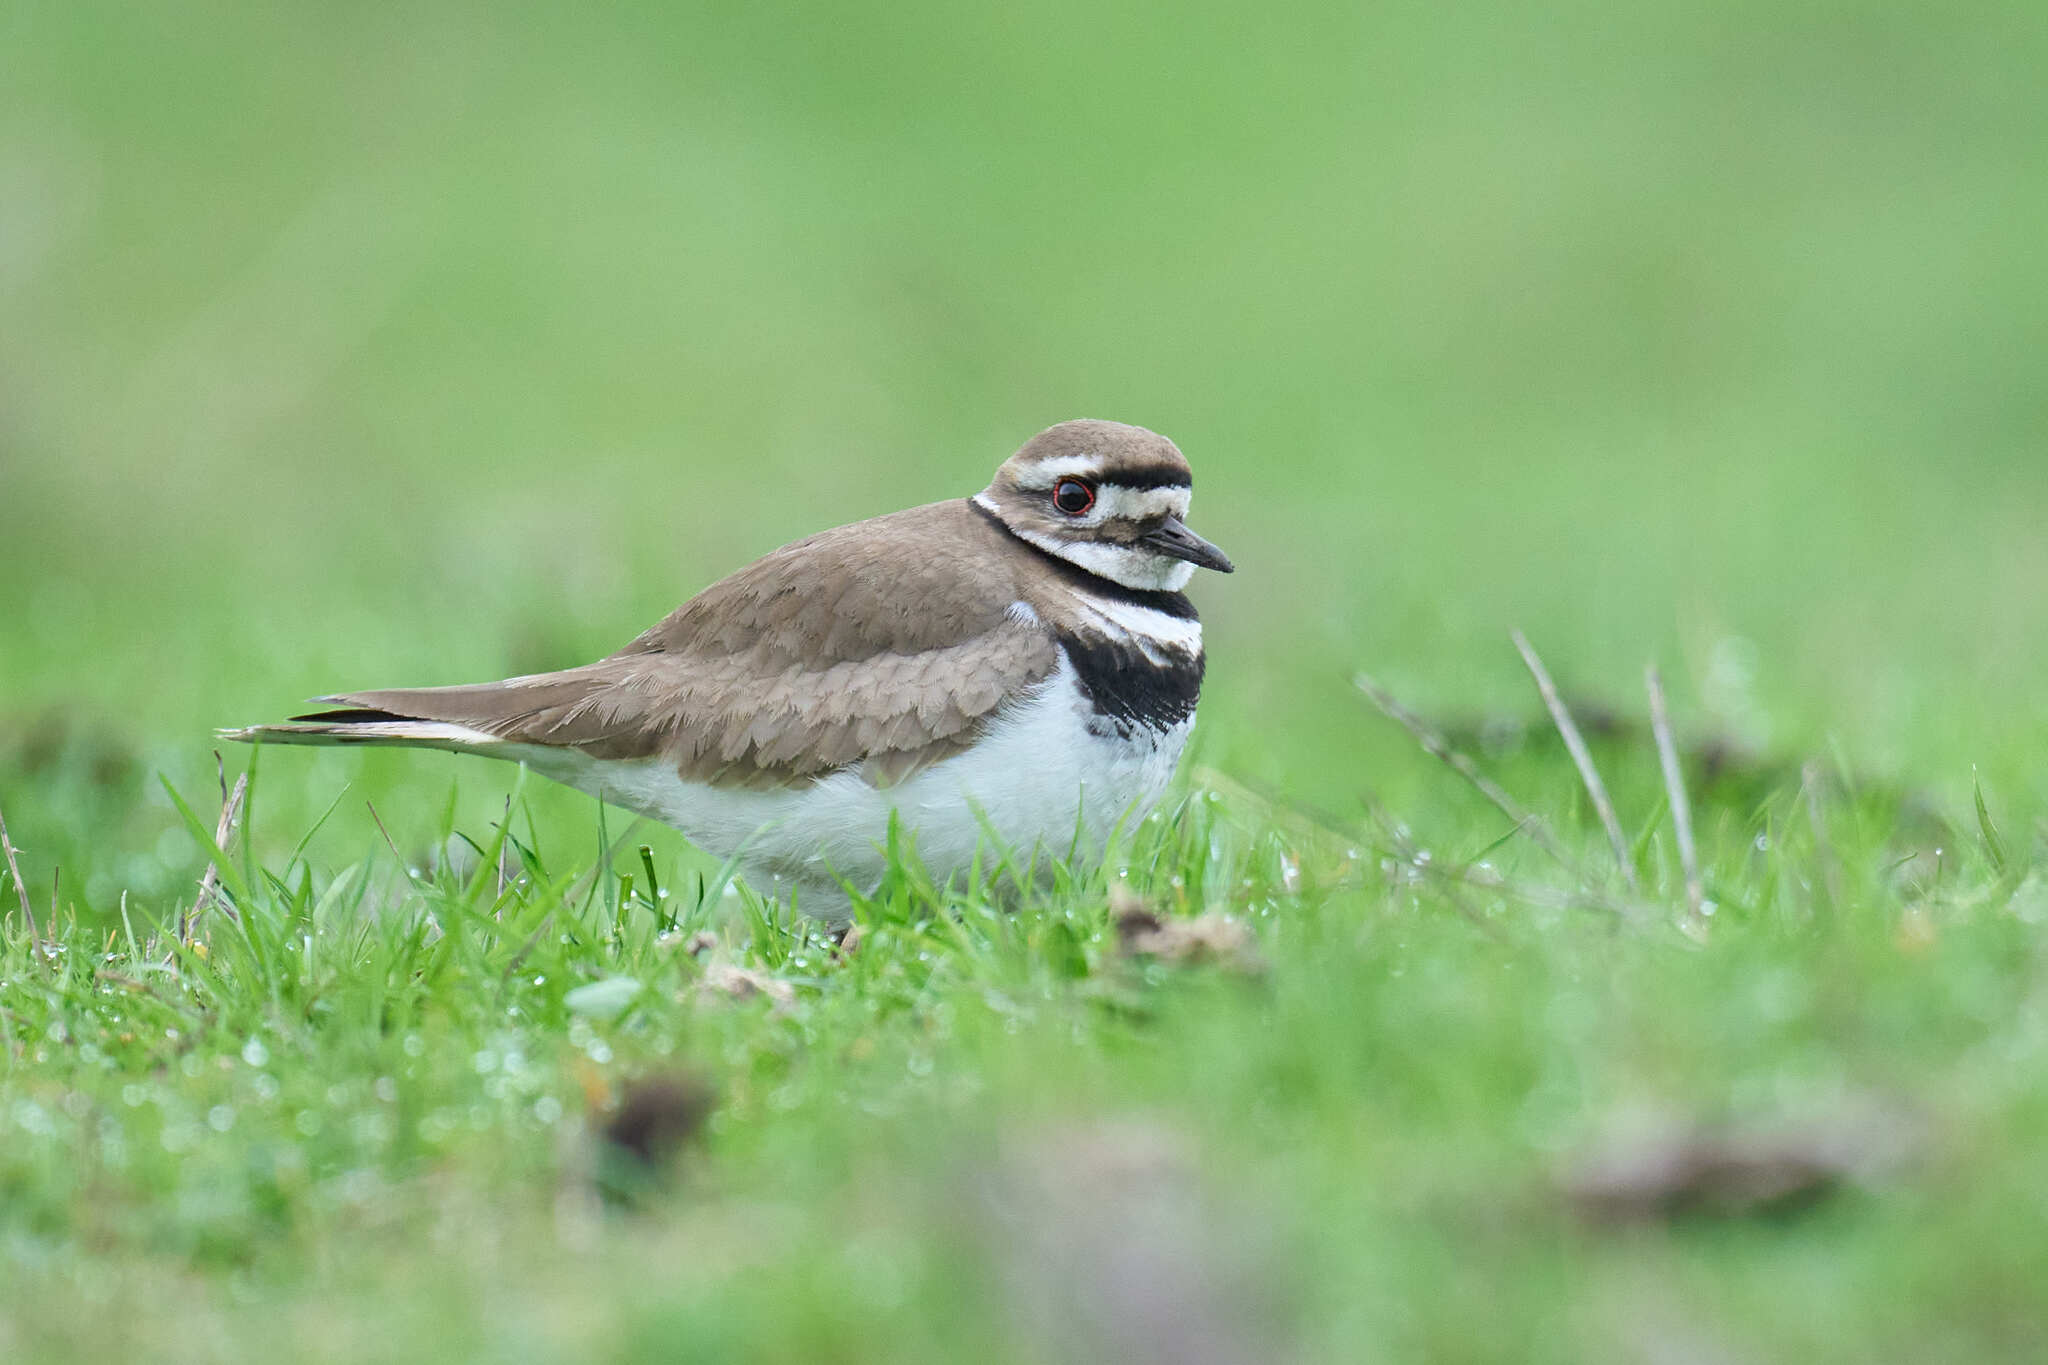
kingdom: Animalia
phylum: Chordata
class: Aves
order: Charadriiformes
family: Charadriidae
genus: Charadrius
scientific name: Charadrius vociferus
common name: Killdeer
